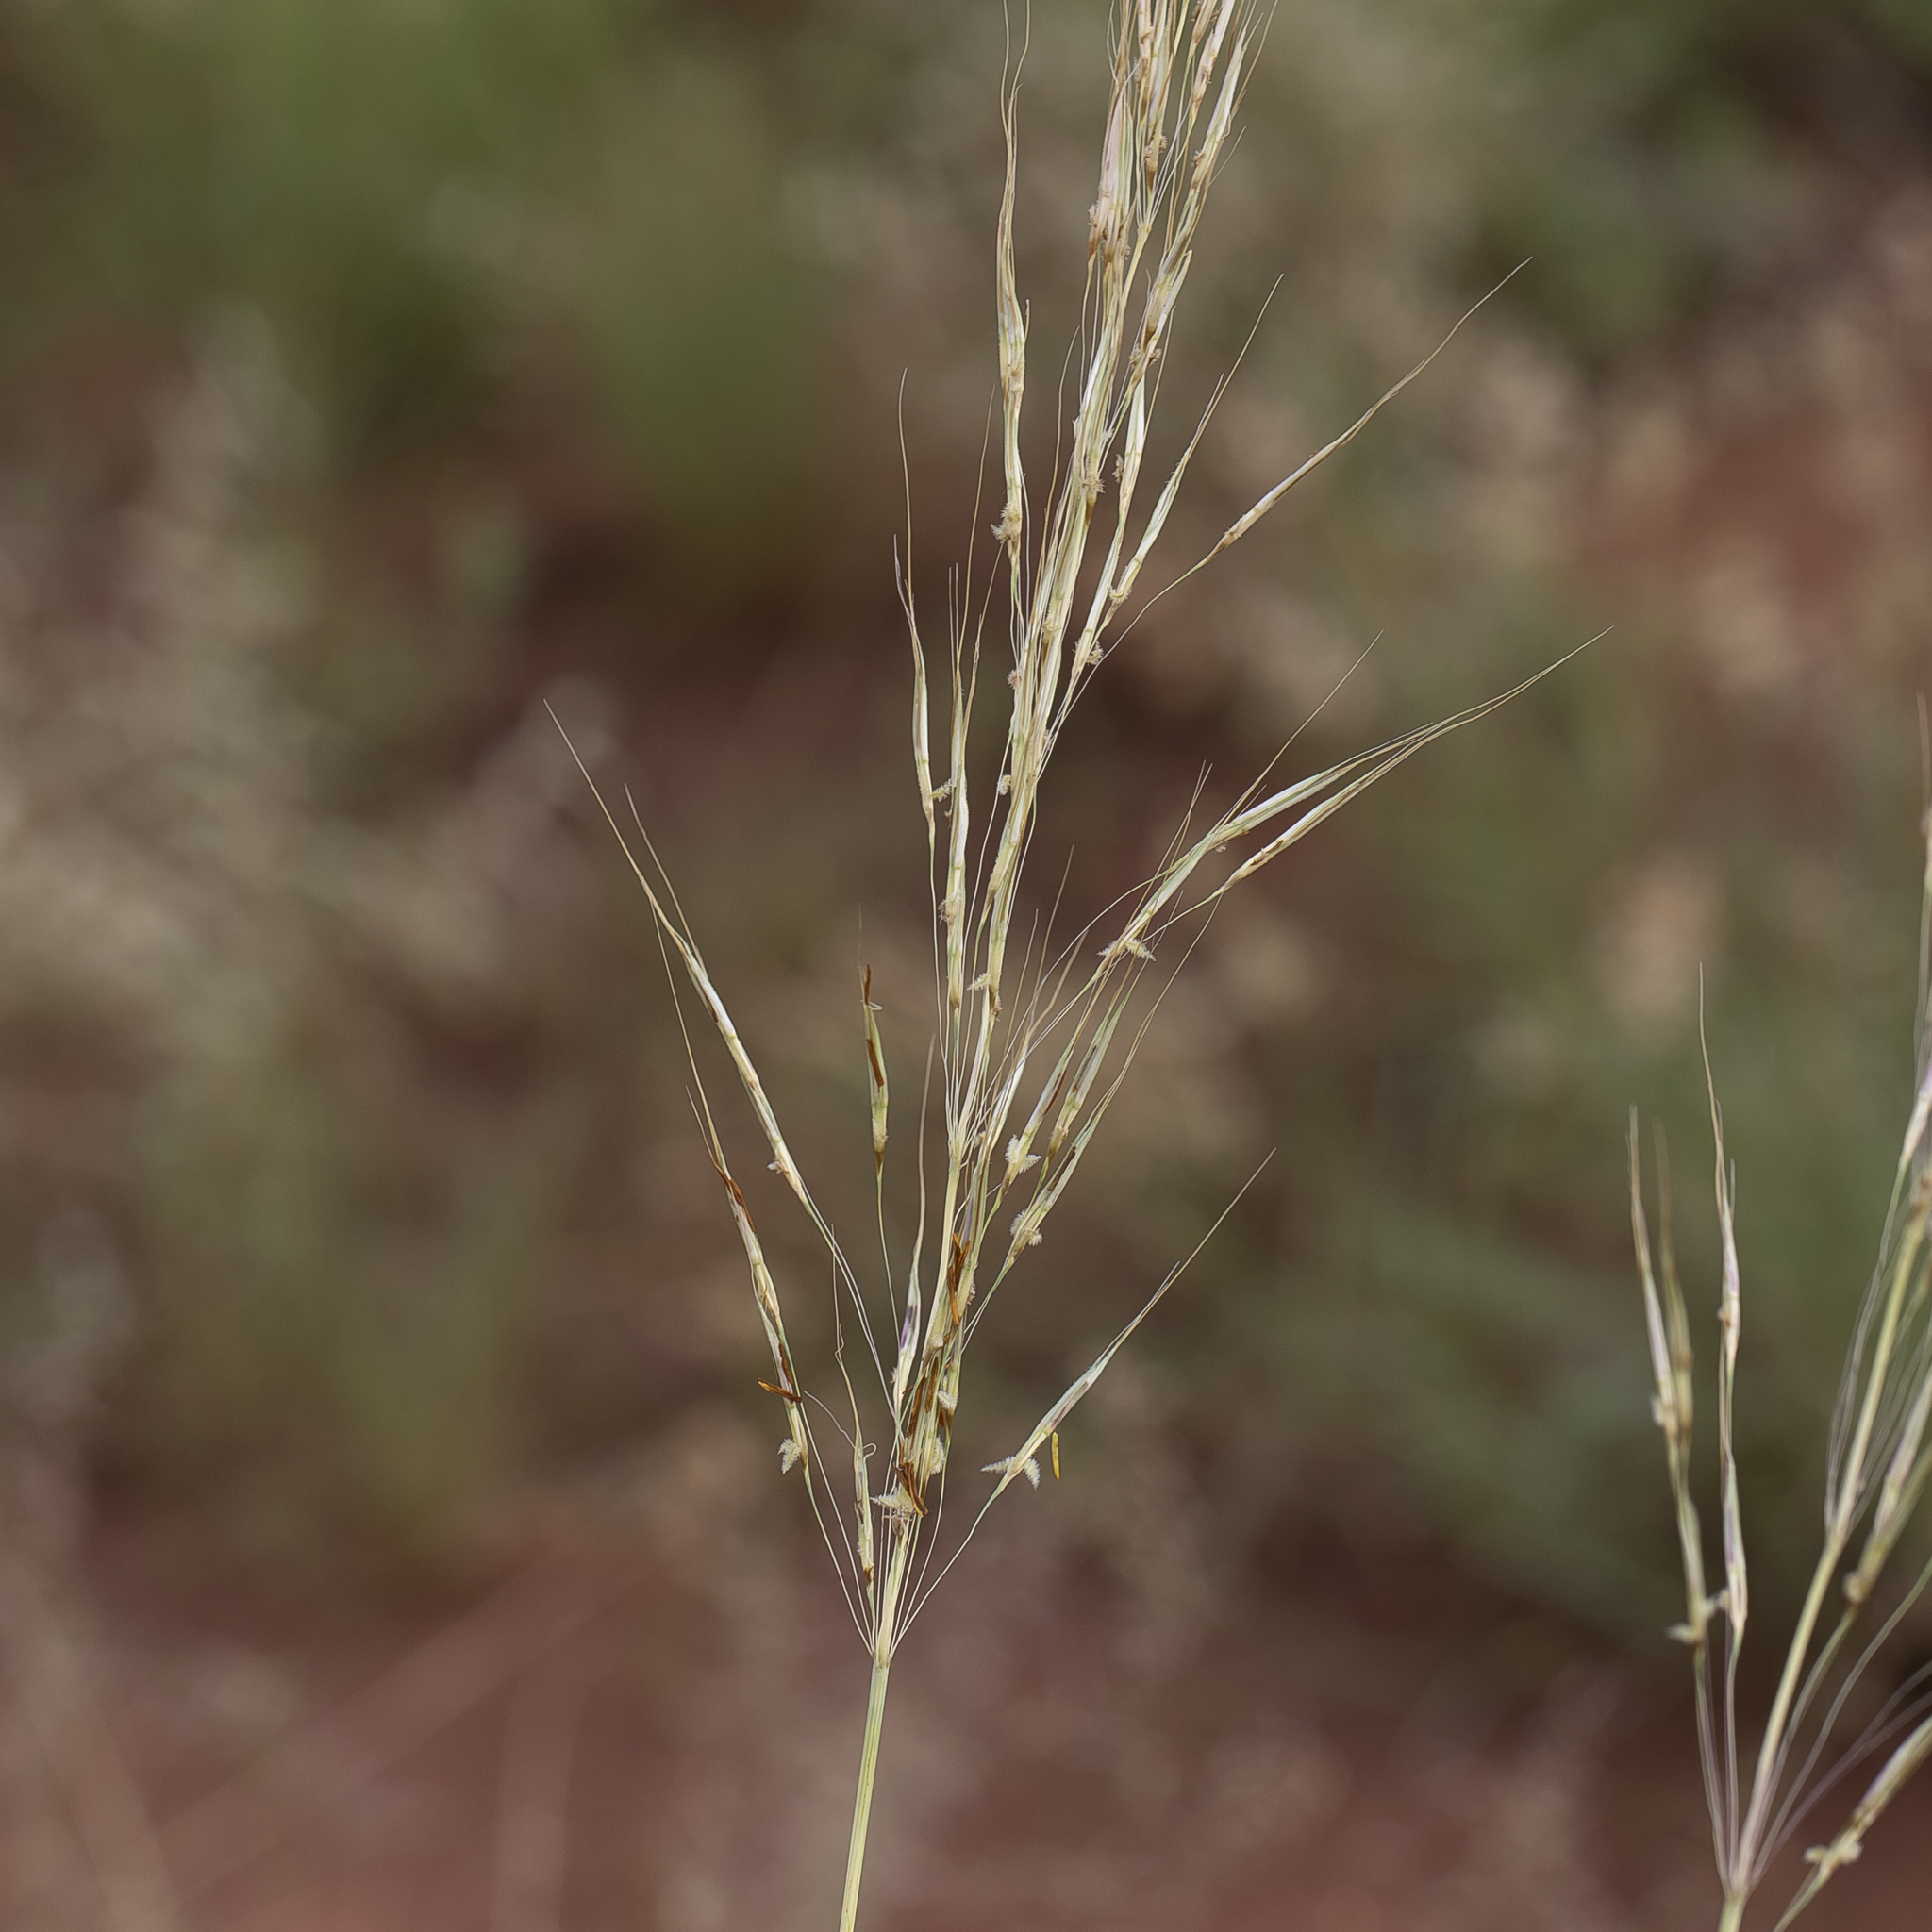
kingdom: Plantae
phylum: Tracheophyta
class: Liliopsida
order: Poales
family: Poaceae
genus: Chrysopogon
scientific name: Chrysopogon fallax
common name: Golden beard grass
